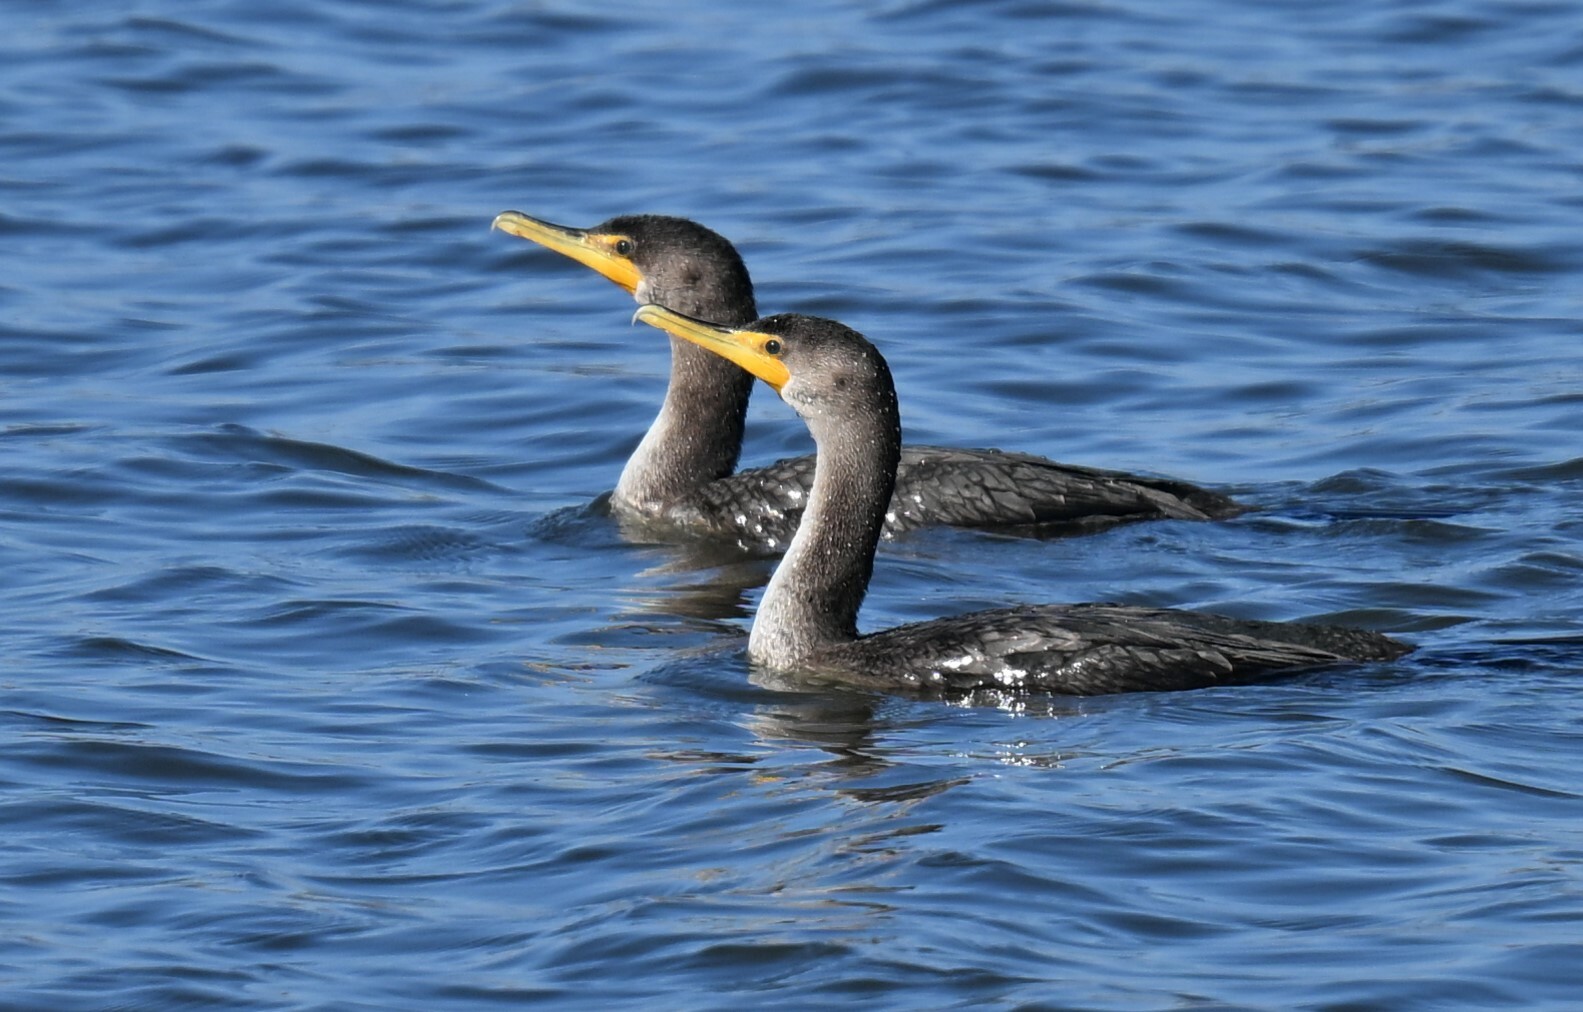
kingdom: Animalia
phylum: Chordata
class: Aves
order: Suliformes
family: Phalacrocoracidae
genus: Phalacrocorax
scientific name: Phalacrocorax auritus
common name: Double-crested cormorant
